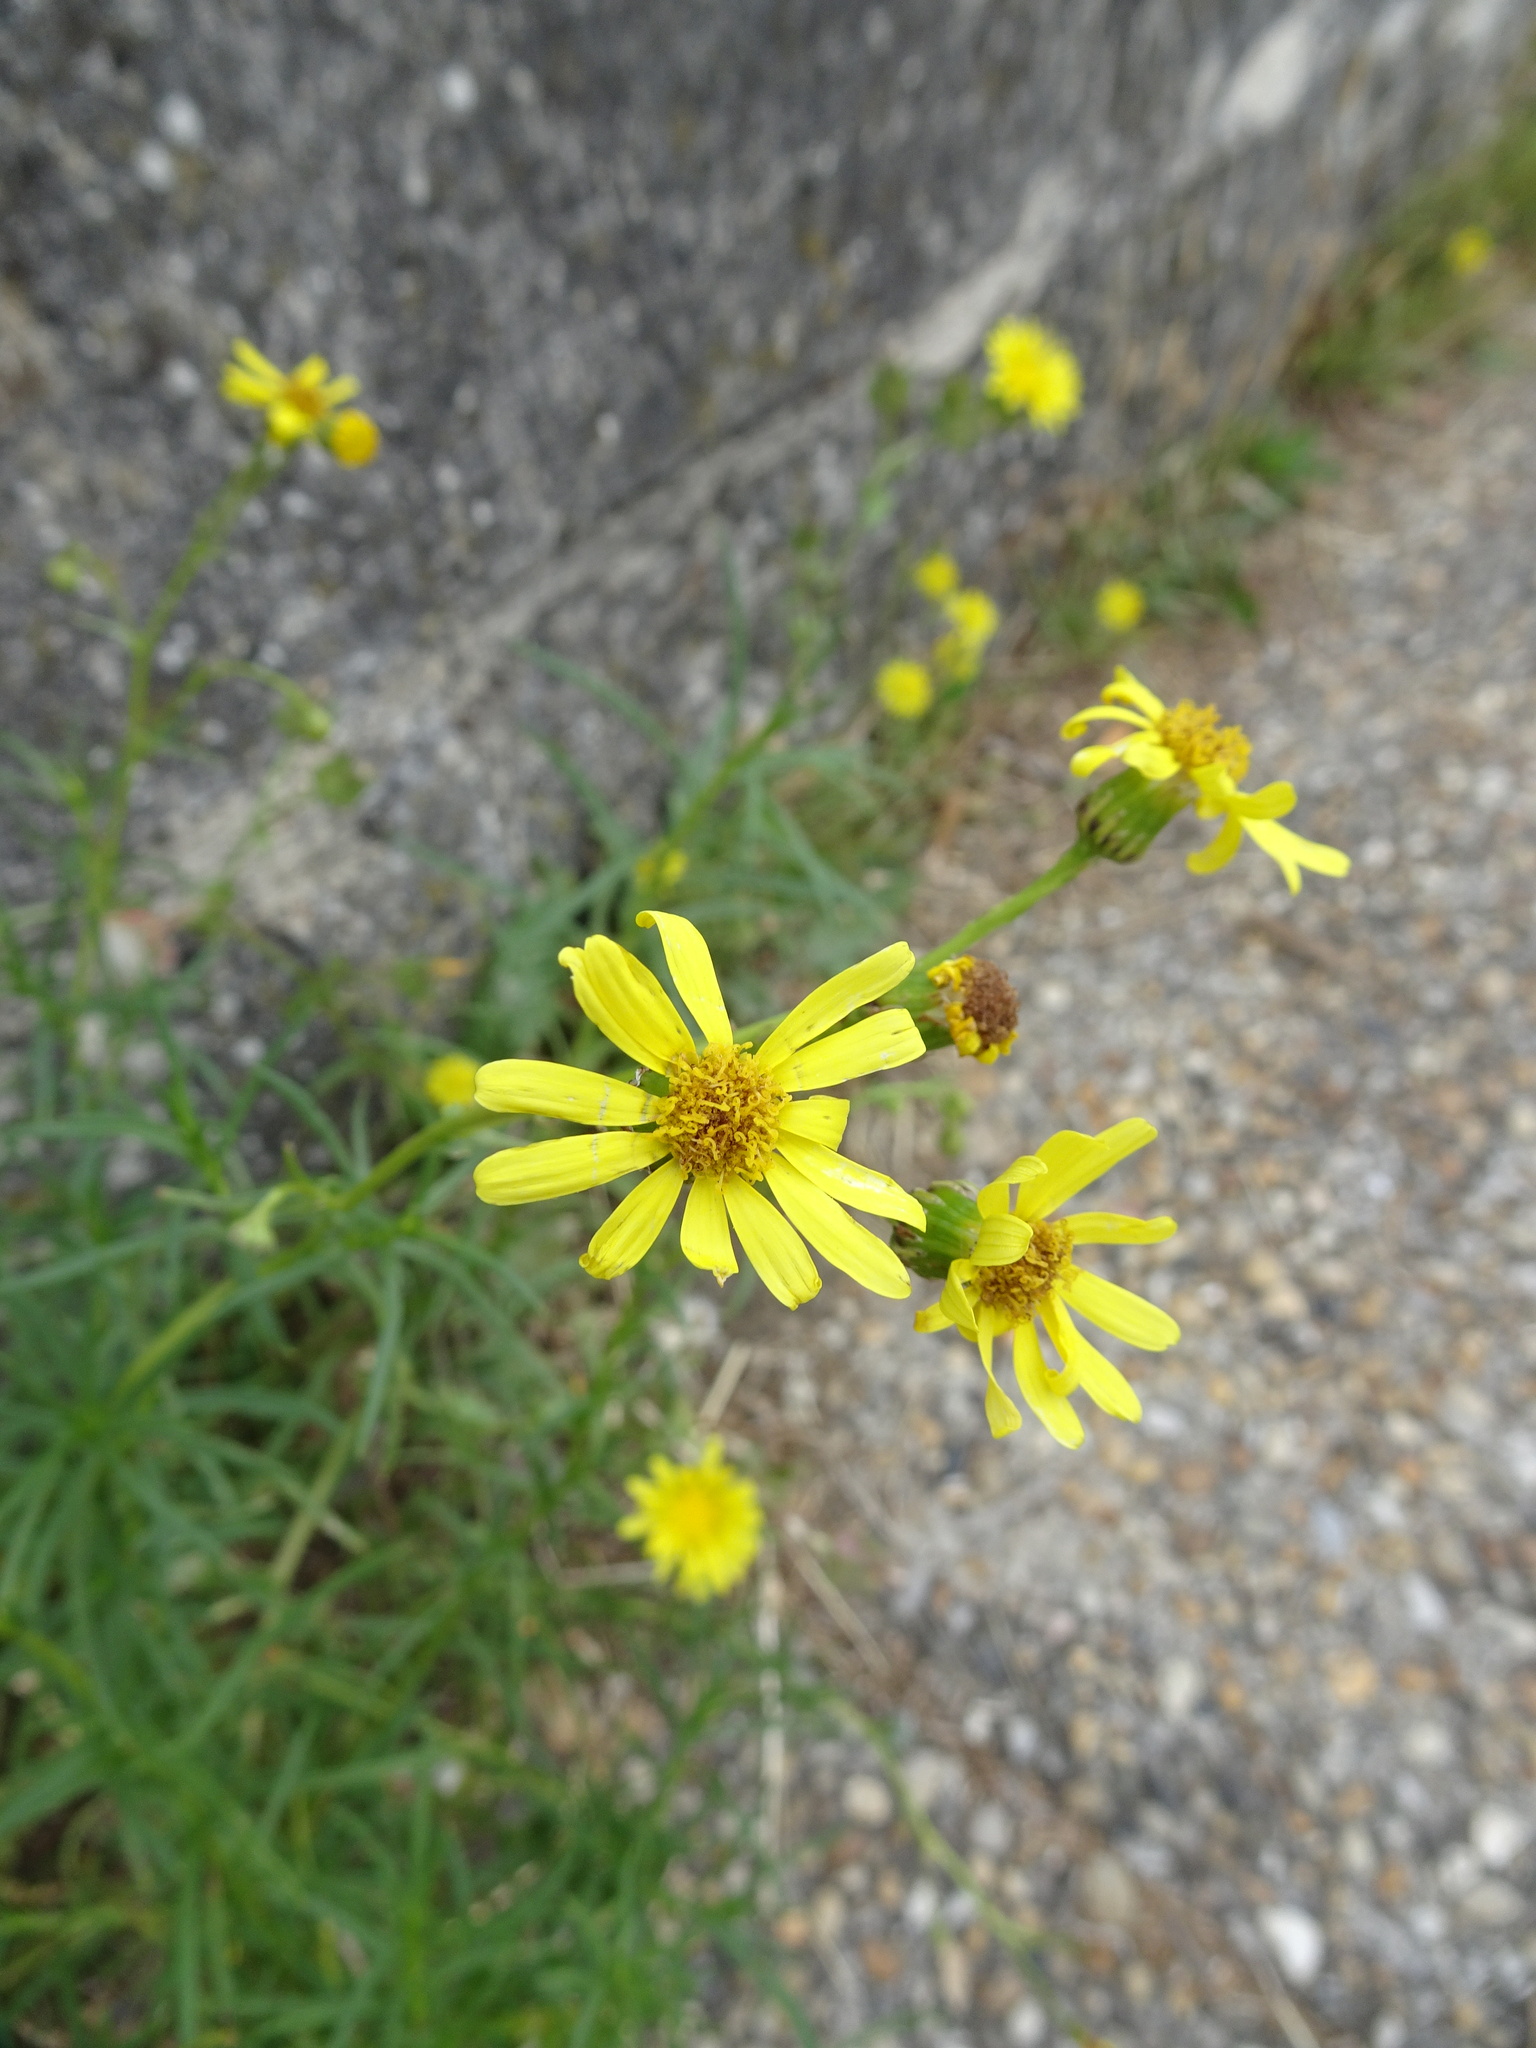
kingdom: Plantae
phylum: Tracheophyta
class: Magnoliopsida
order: Asterales
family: Asteraceae
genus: Senecio
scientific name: Senecio inaequidens
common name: Narrow-leaved ragwort
